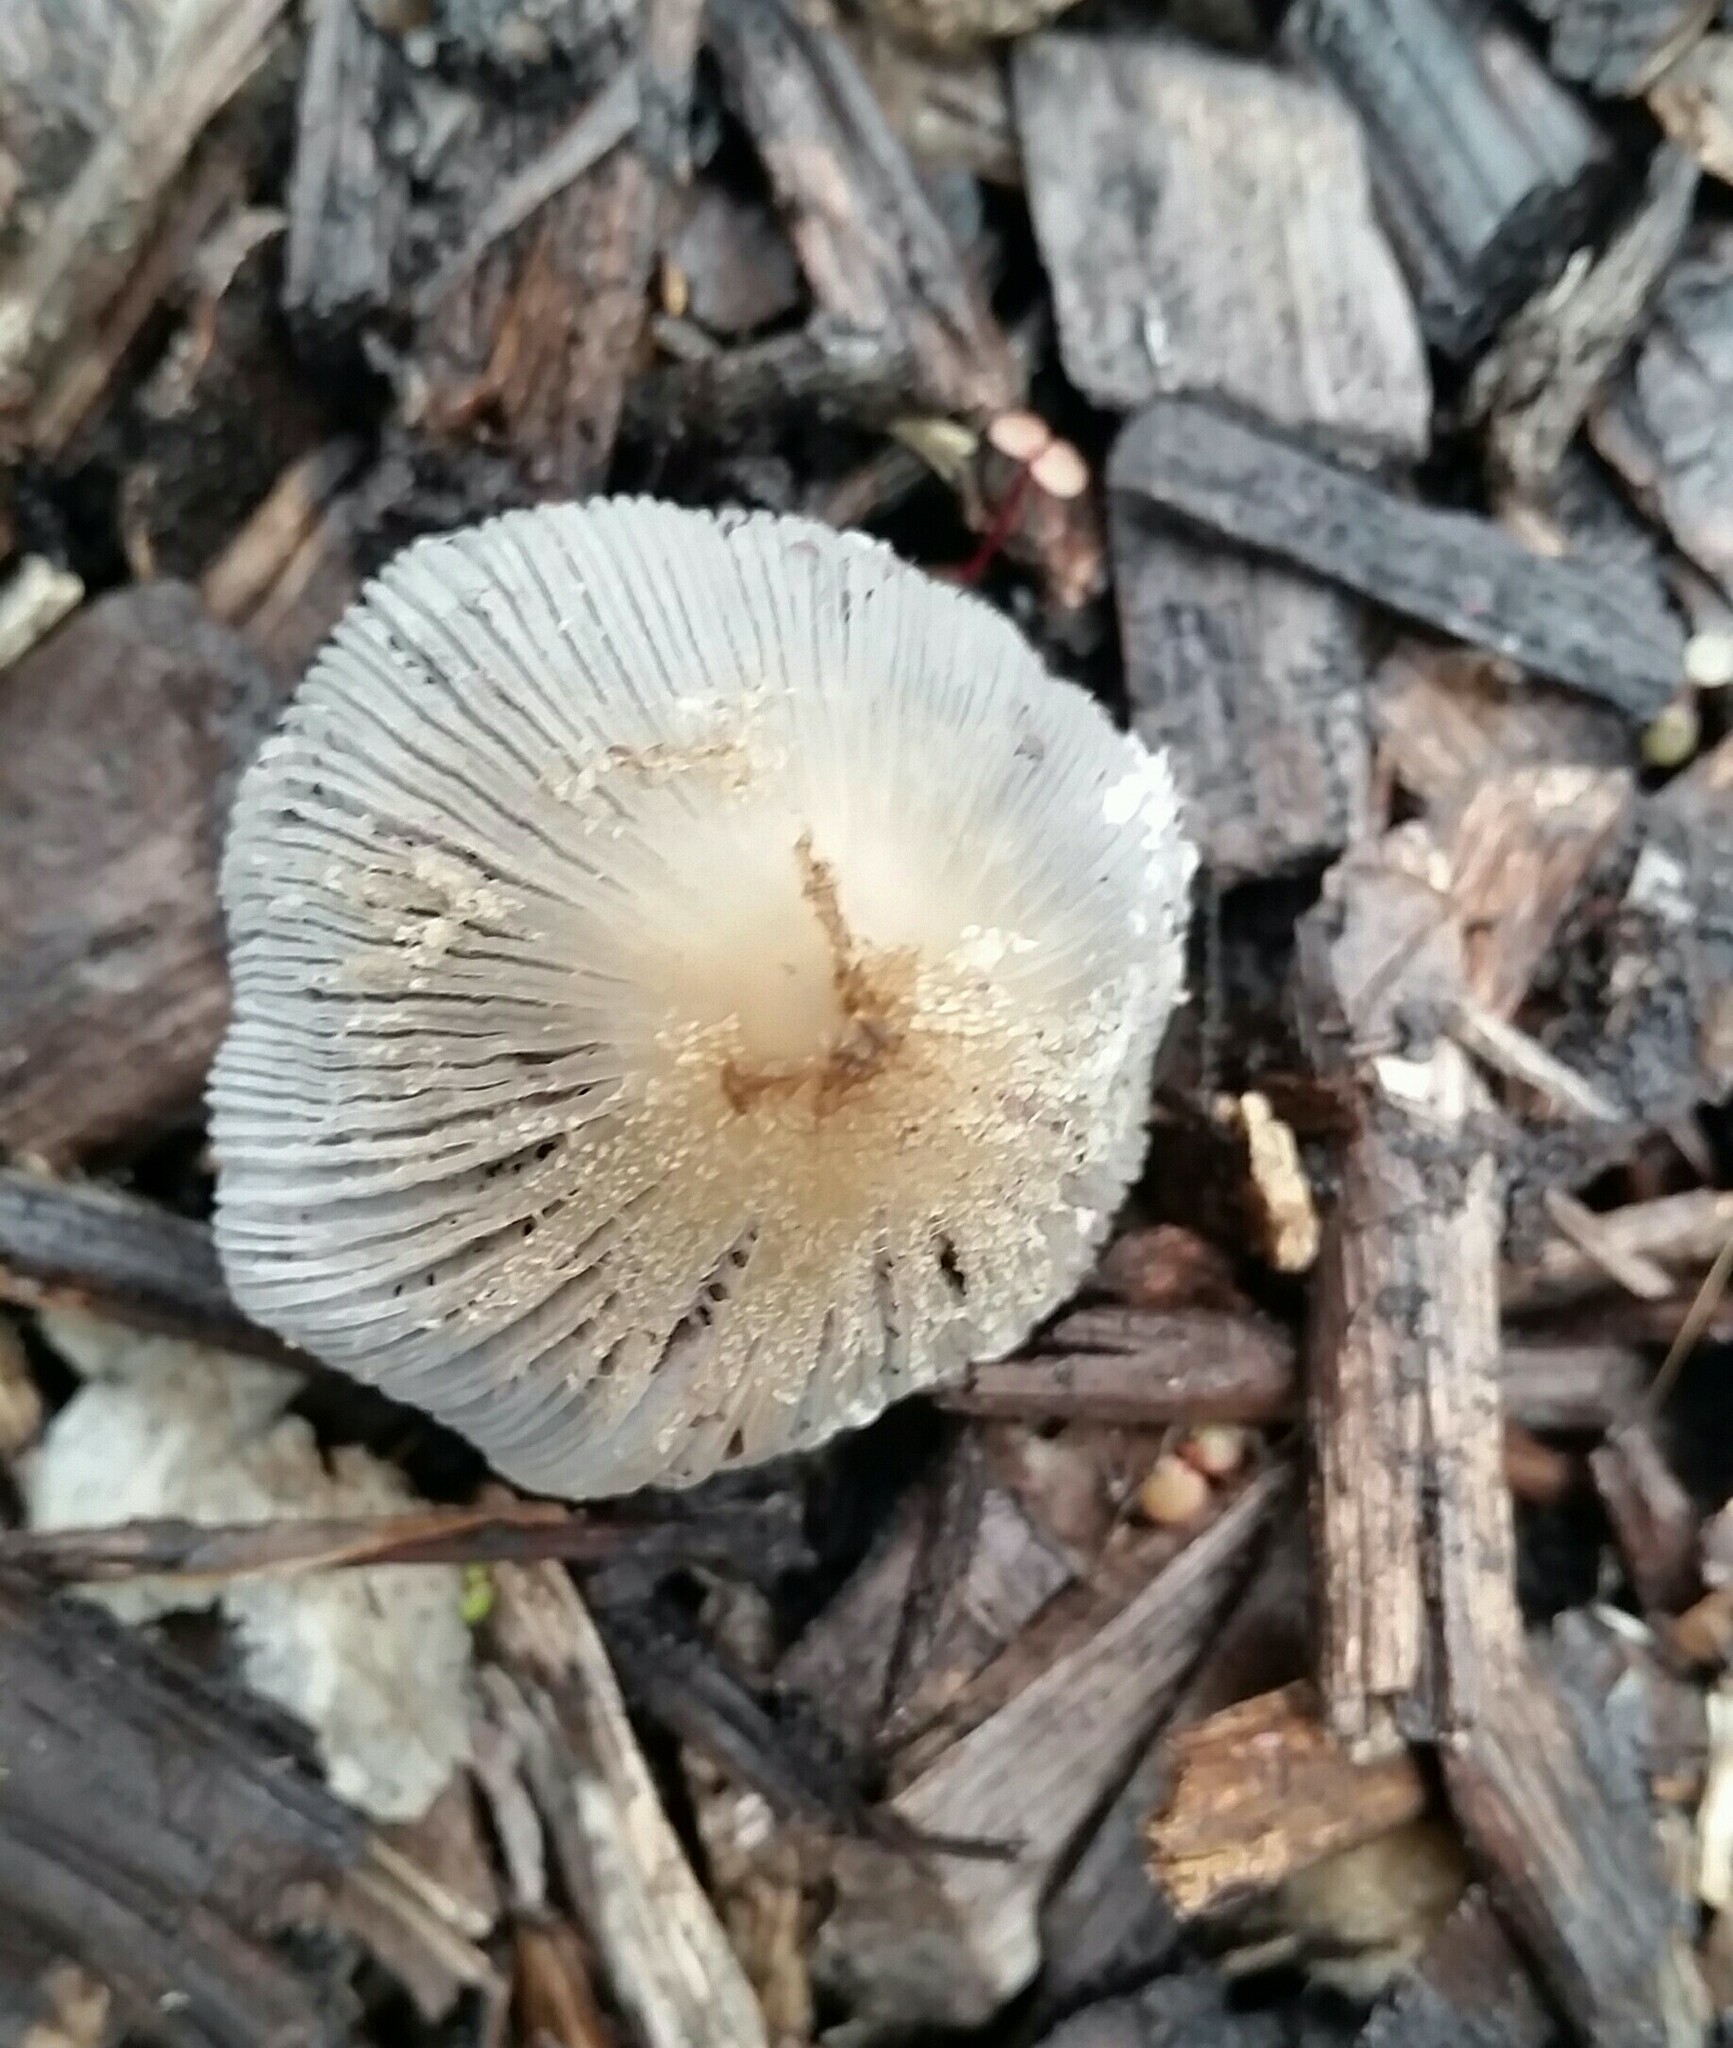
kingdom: Fungi
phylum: Basidiomycota
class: Agaricomycetes
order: Agaricales
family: Psathyrellaceae
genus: Coprinellus
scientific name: Coprinellus flocculosus
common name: Flocculose inkcap
